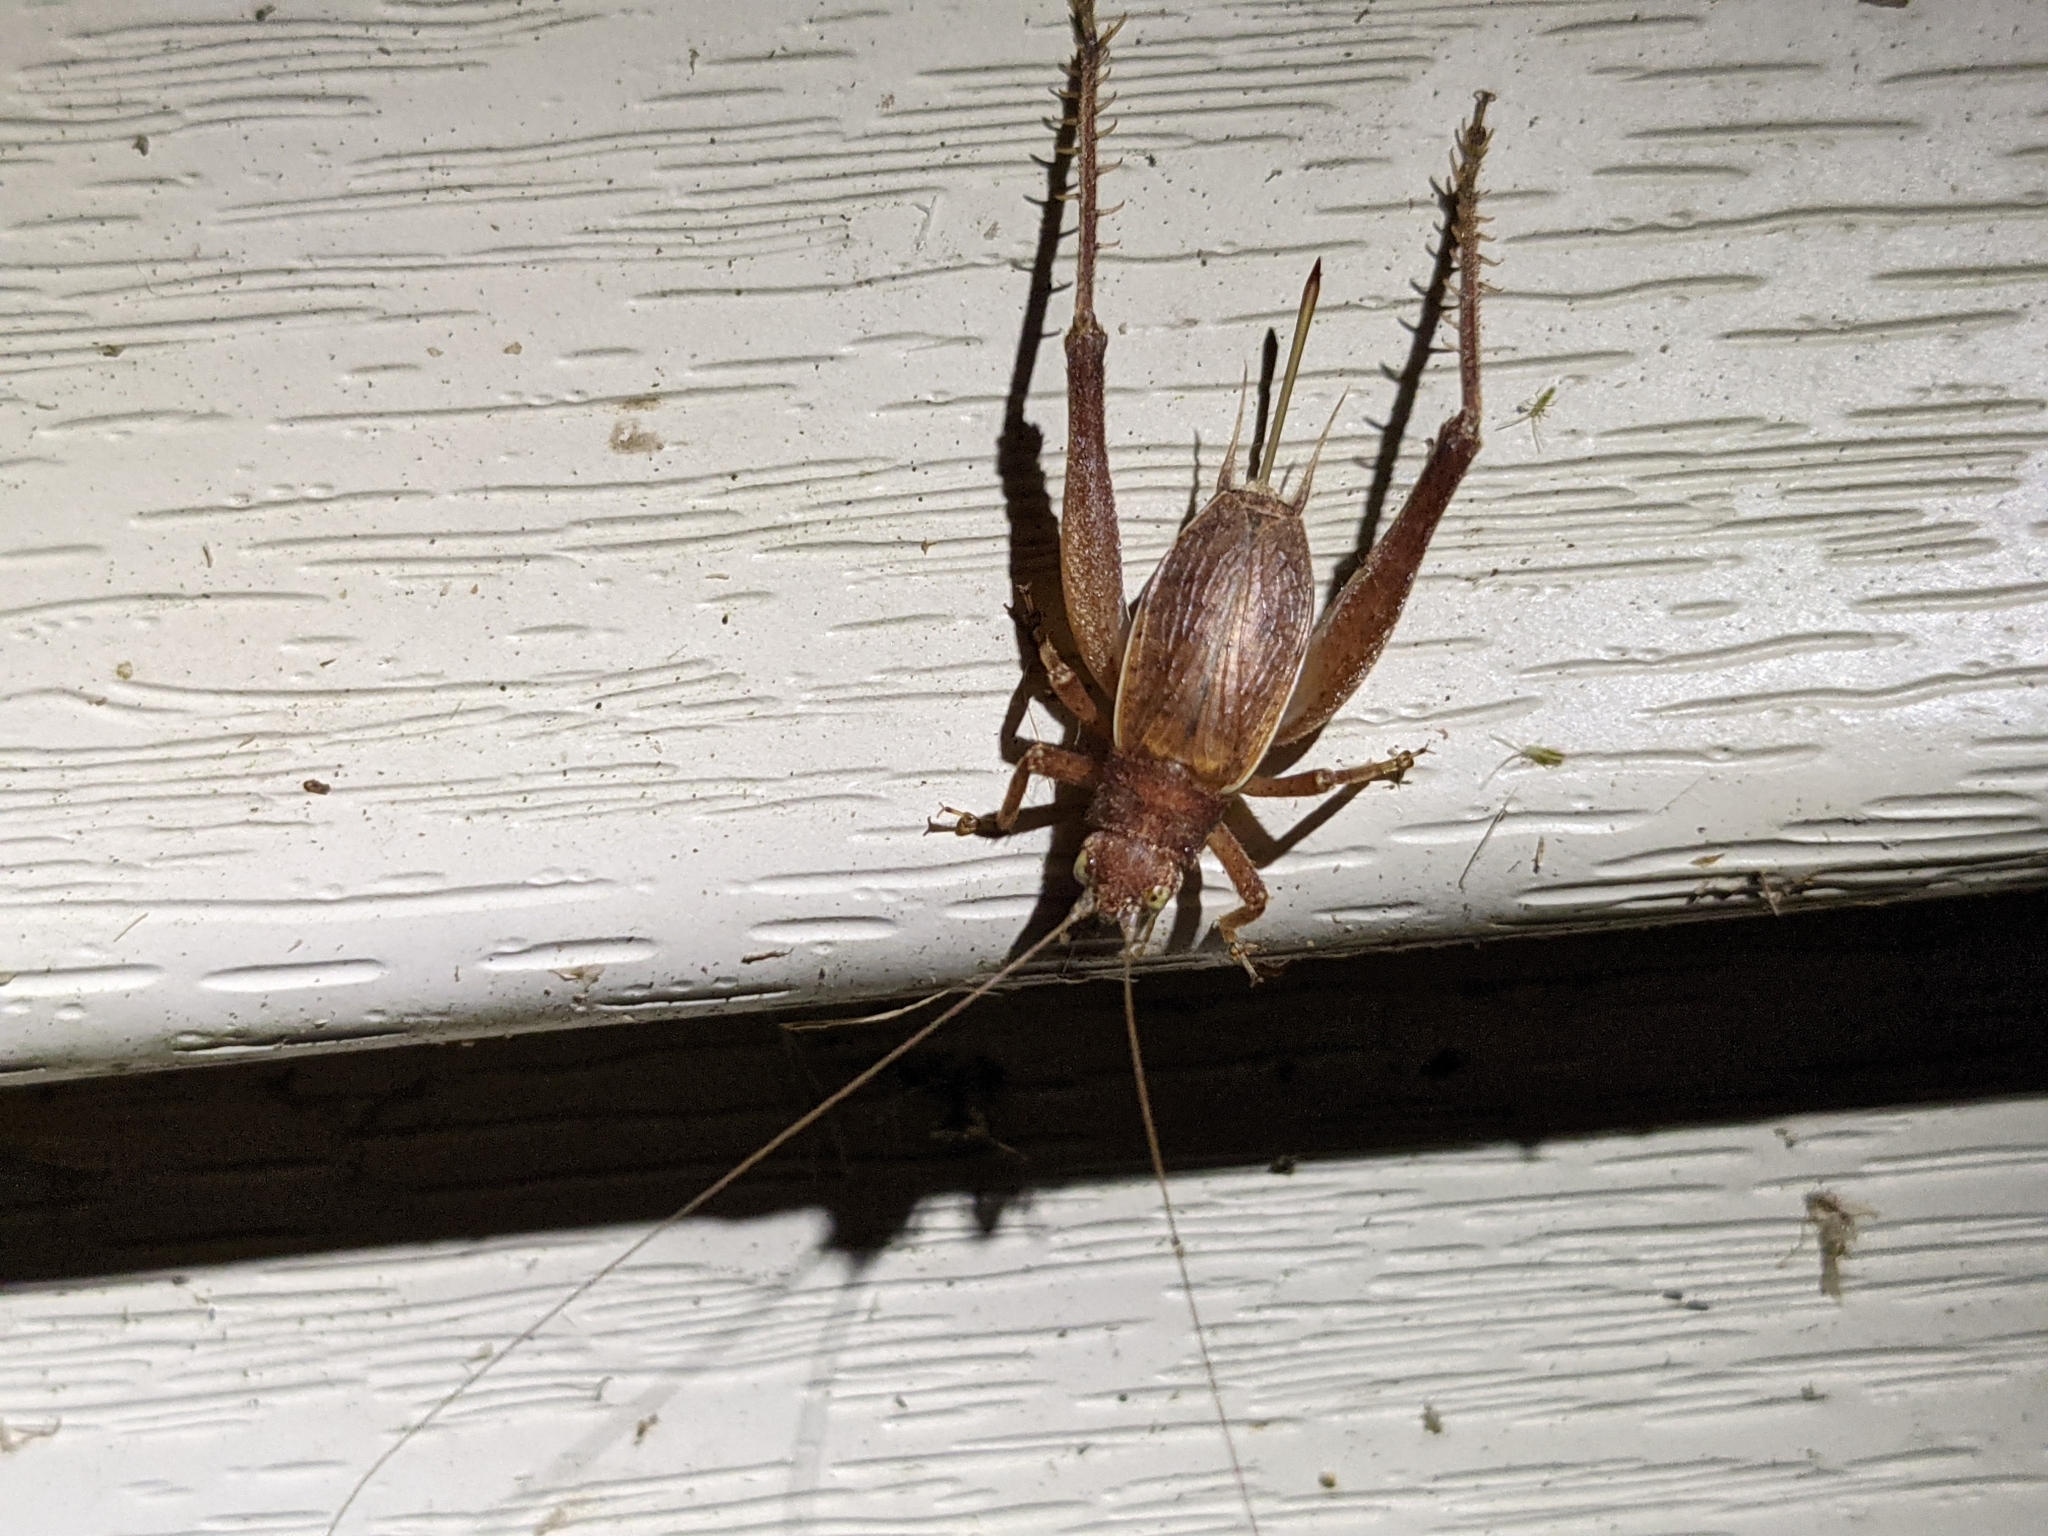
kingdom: Animalia
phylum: Arthropoda
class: Insecta
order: Orthoptera
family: Gryllidae
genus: Hapithus
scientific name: Hapithus agitator
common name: Restless bush cricket
